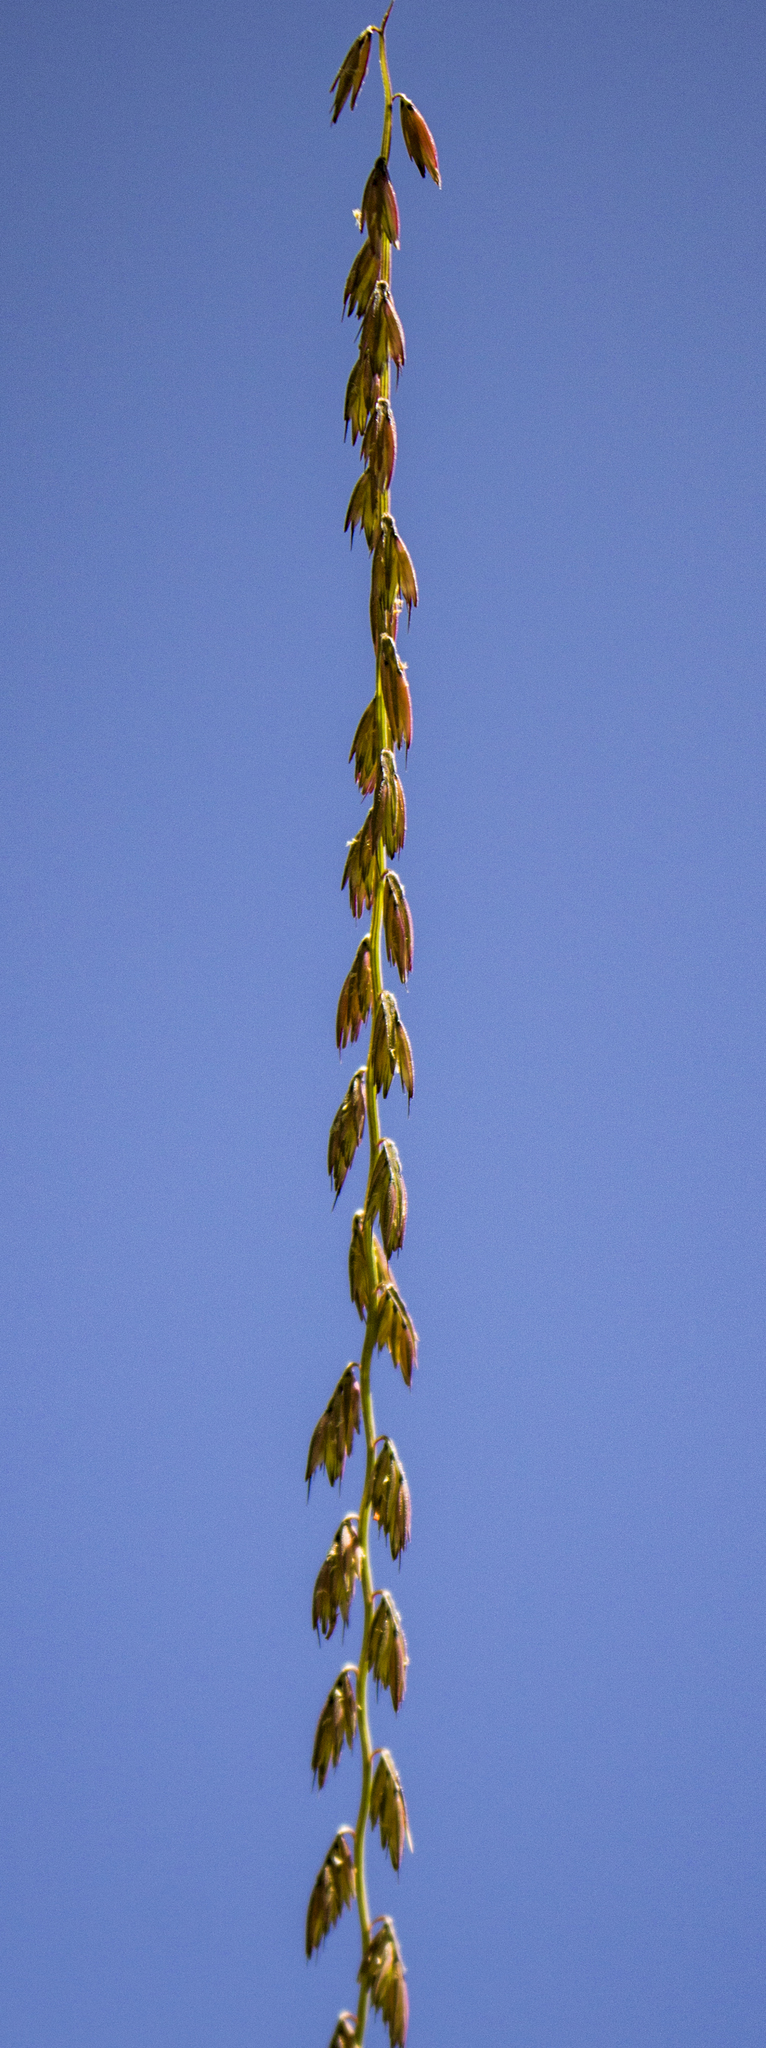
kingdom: Plantae
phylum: Tracheophyta
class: Liliopsida
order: Poales
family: Poaceae
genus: Bouteloua
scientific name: Bouteloua curtipendula
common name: Side-oats grama
